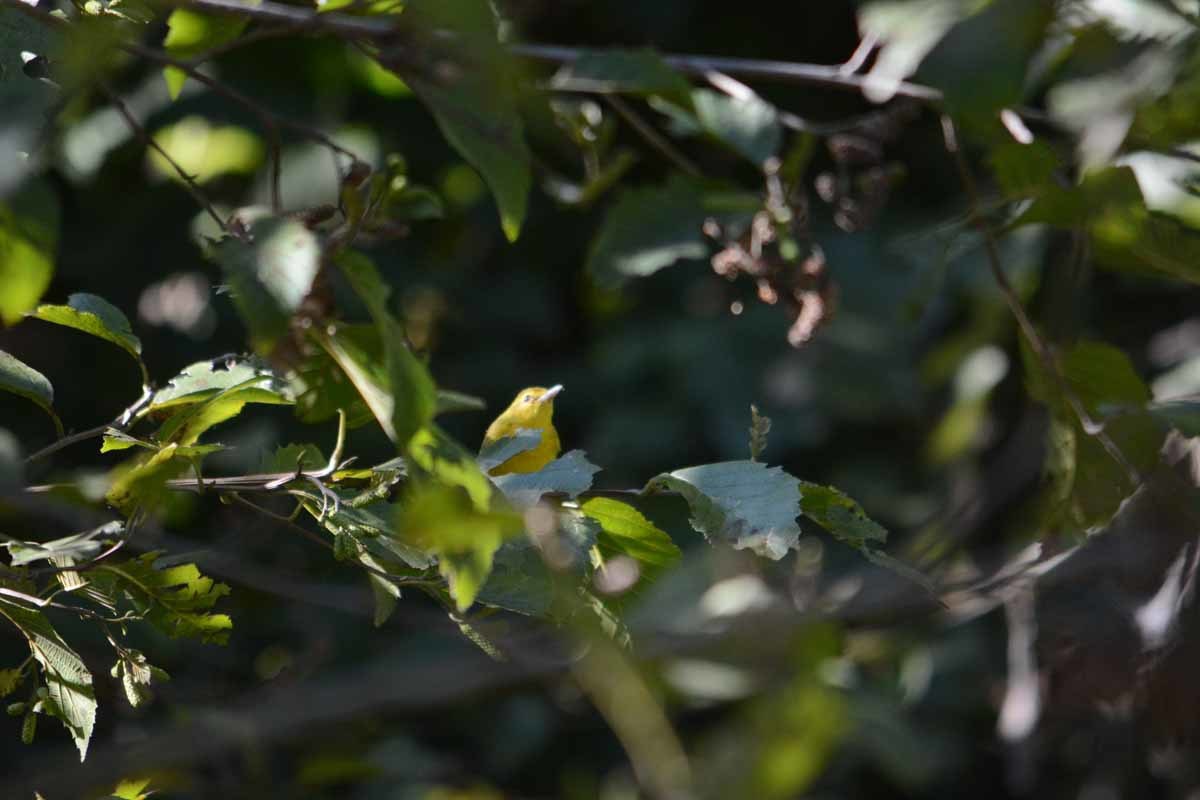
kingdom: Animalia
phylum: Chordata
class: Aves
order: Passeriformes
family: Vireonidae
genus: Vireo
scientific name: Vireo hypochryseus
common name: Golden vireo
